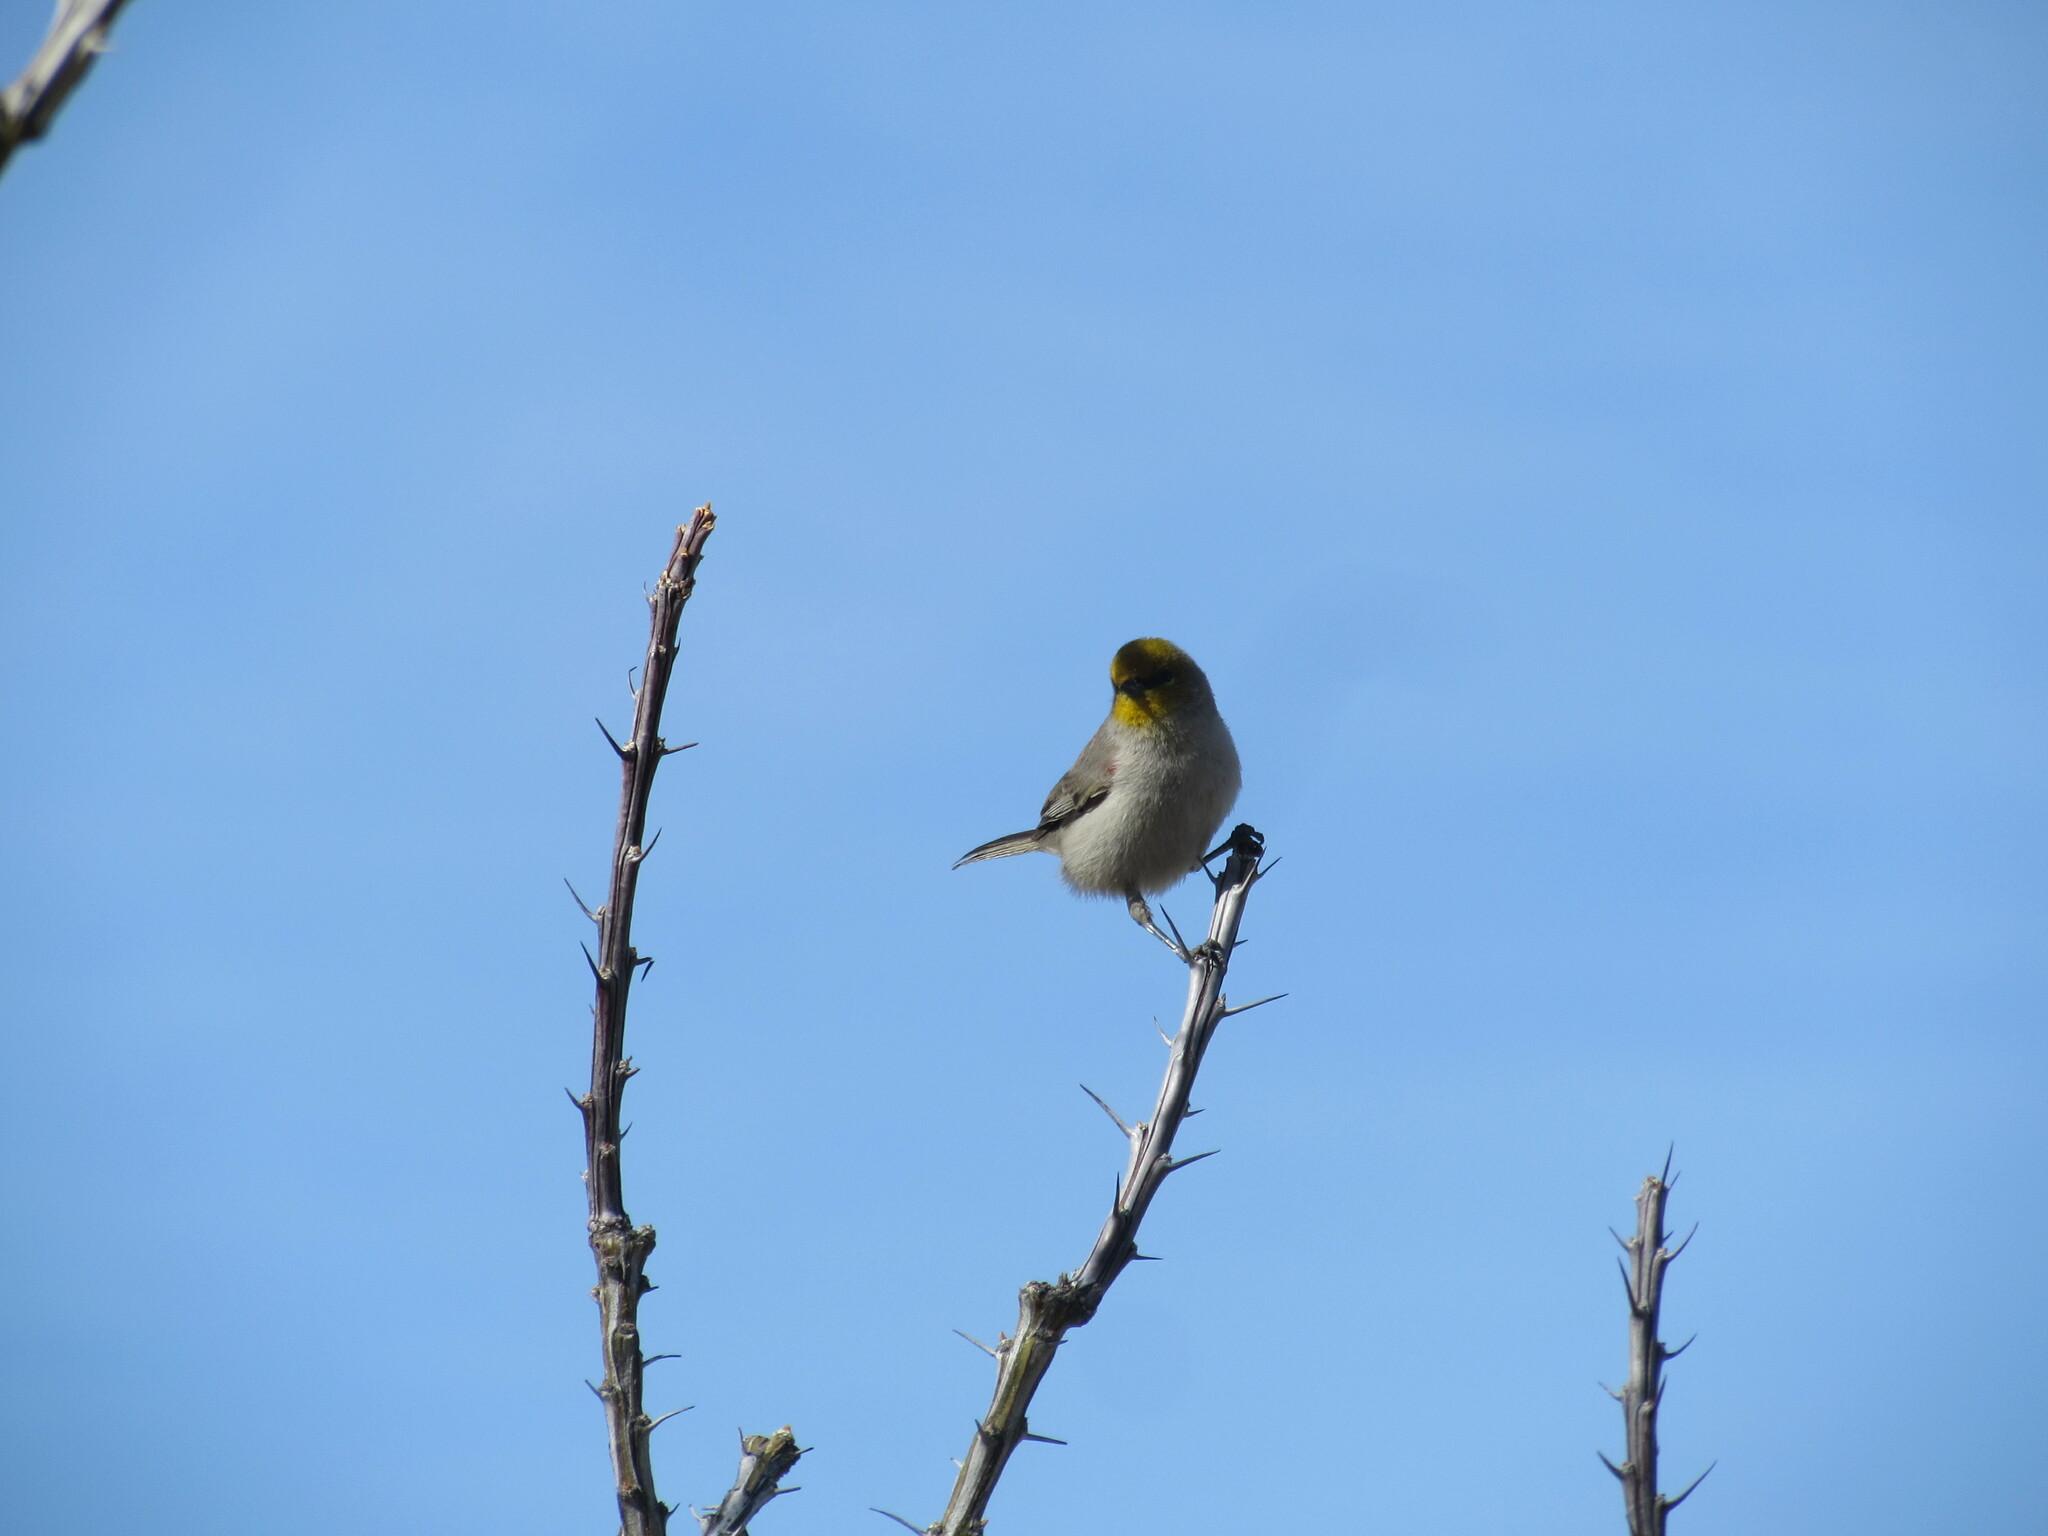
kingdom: Animalia
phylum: Chordata
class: Aves
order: Passeriformes
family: Remizidae
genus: Auriparus
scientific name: Auriparus flaviceps
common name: Verdin
